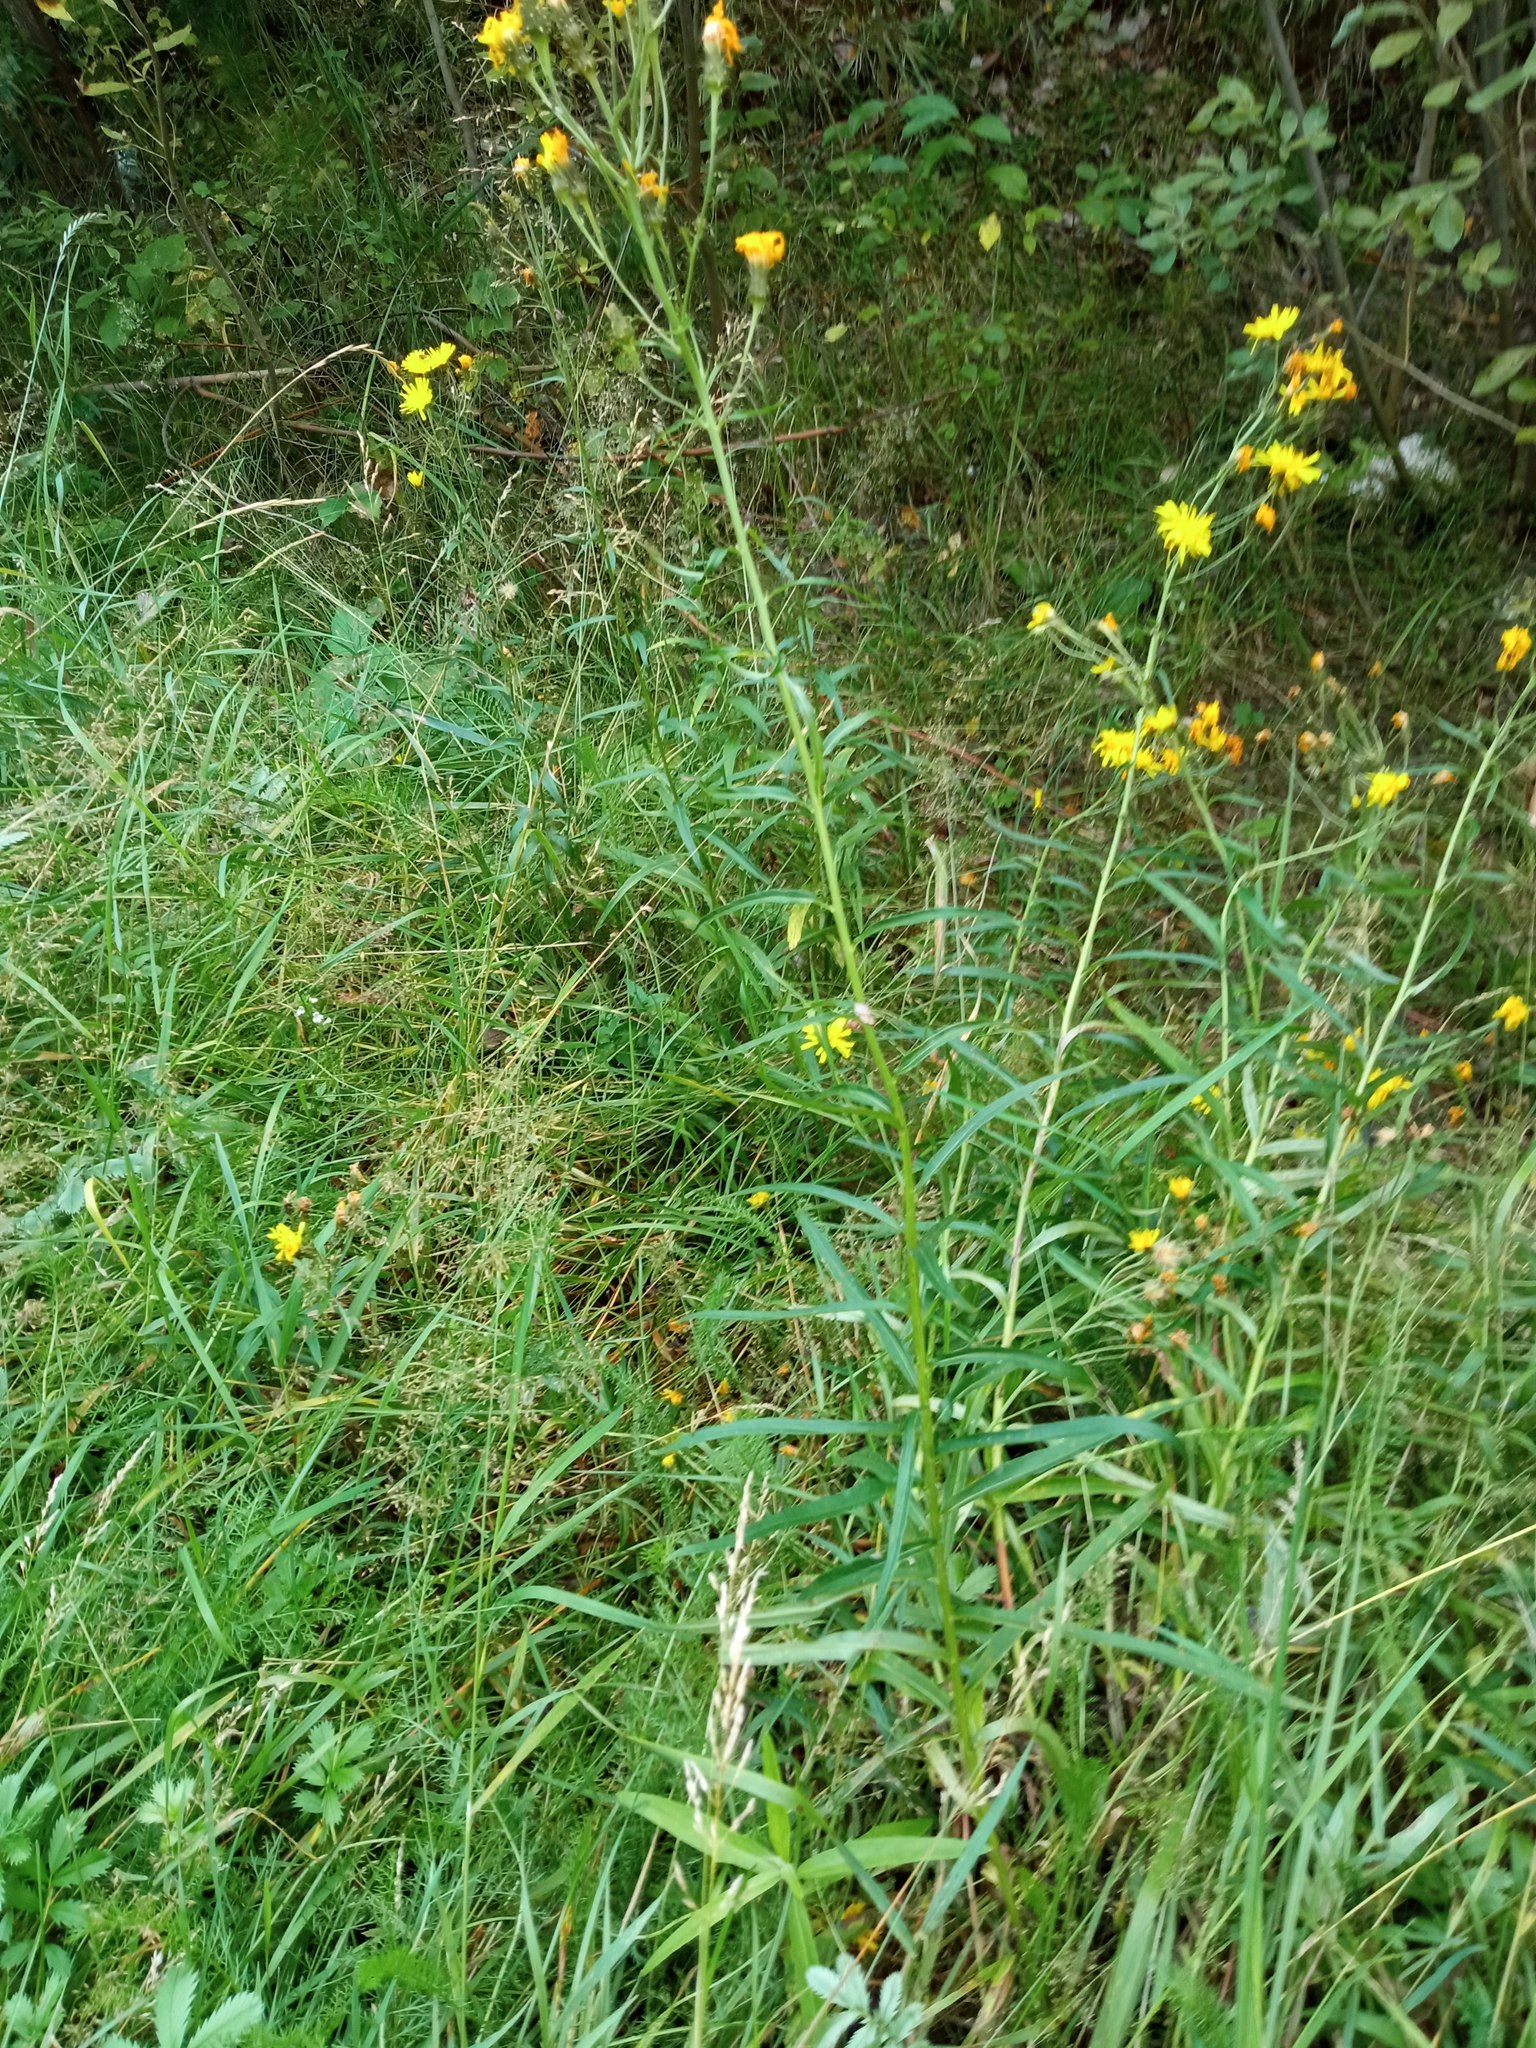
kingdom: Plantae
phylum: Tracheophyta
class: Magnoliopsida
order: Asterales
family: Asteraceae
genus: Hieracium
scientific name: Hieracium umbellatum
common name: Northern hawkweed
